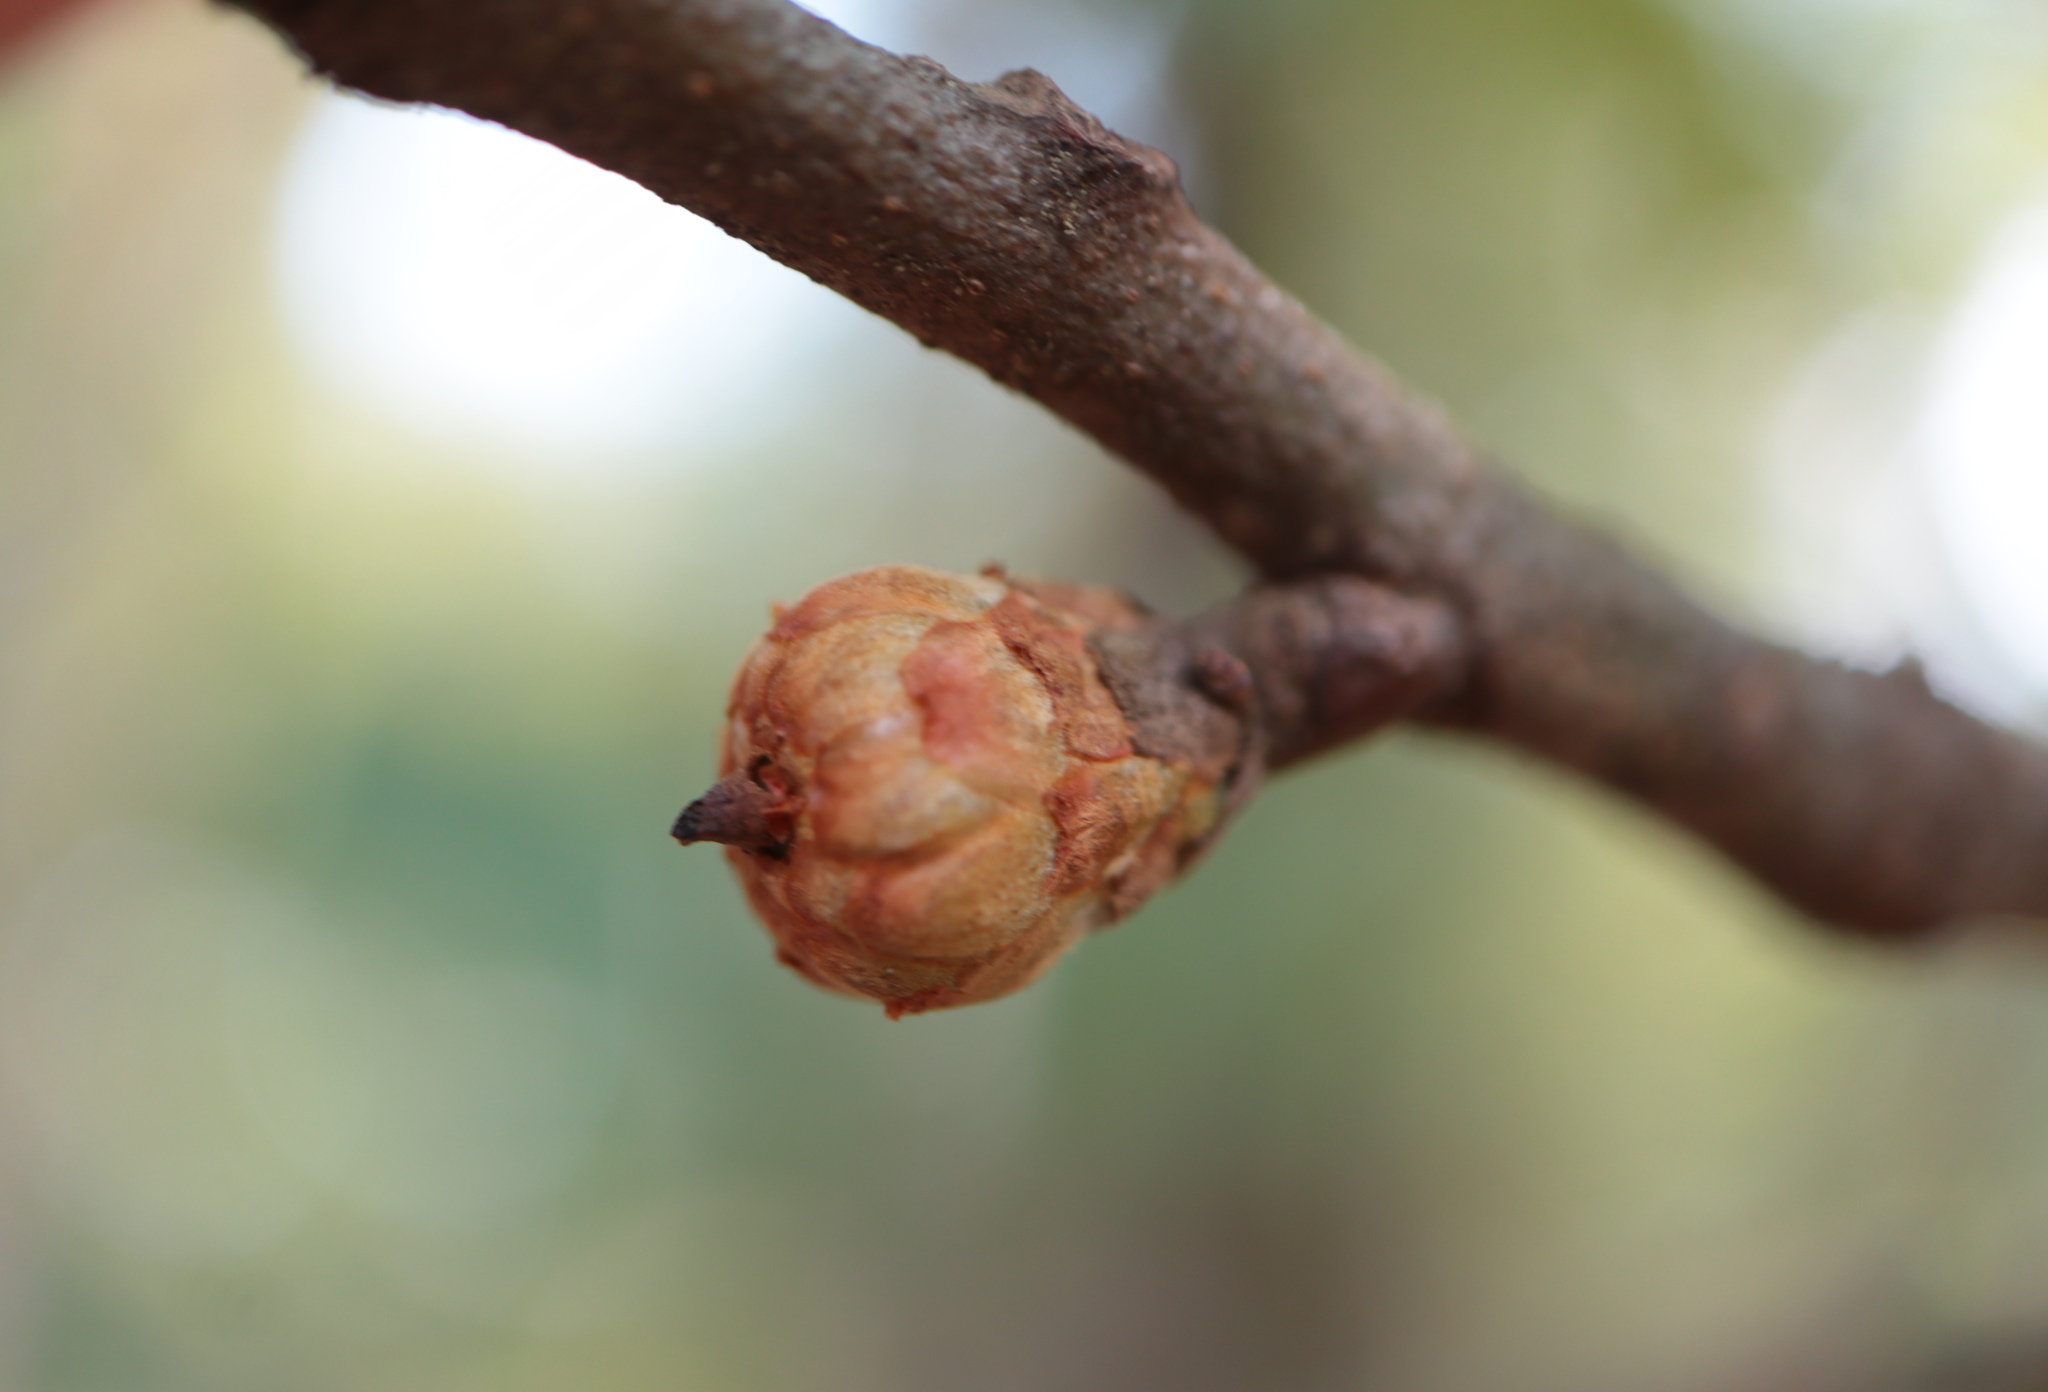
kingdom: Plantae
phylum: Tracheophyta
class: Magnoliopsida
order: Fagales
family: Fagaceae
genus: Quercus
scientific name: Quercus marilandica
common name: Blackjack oak
